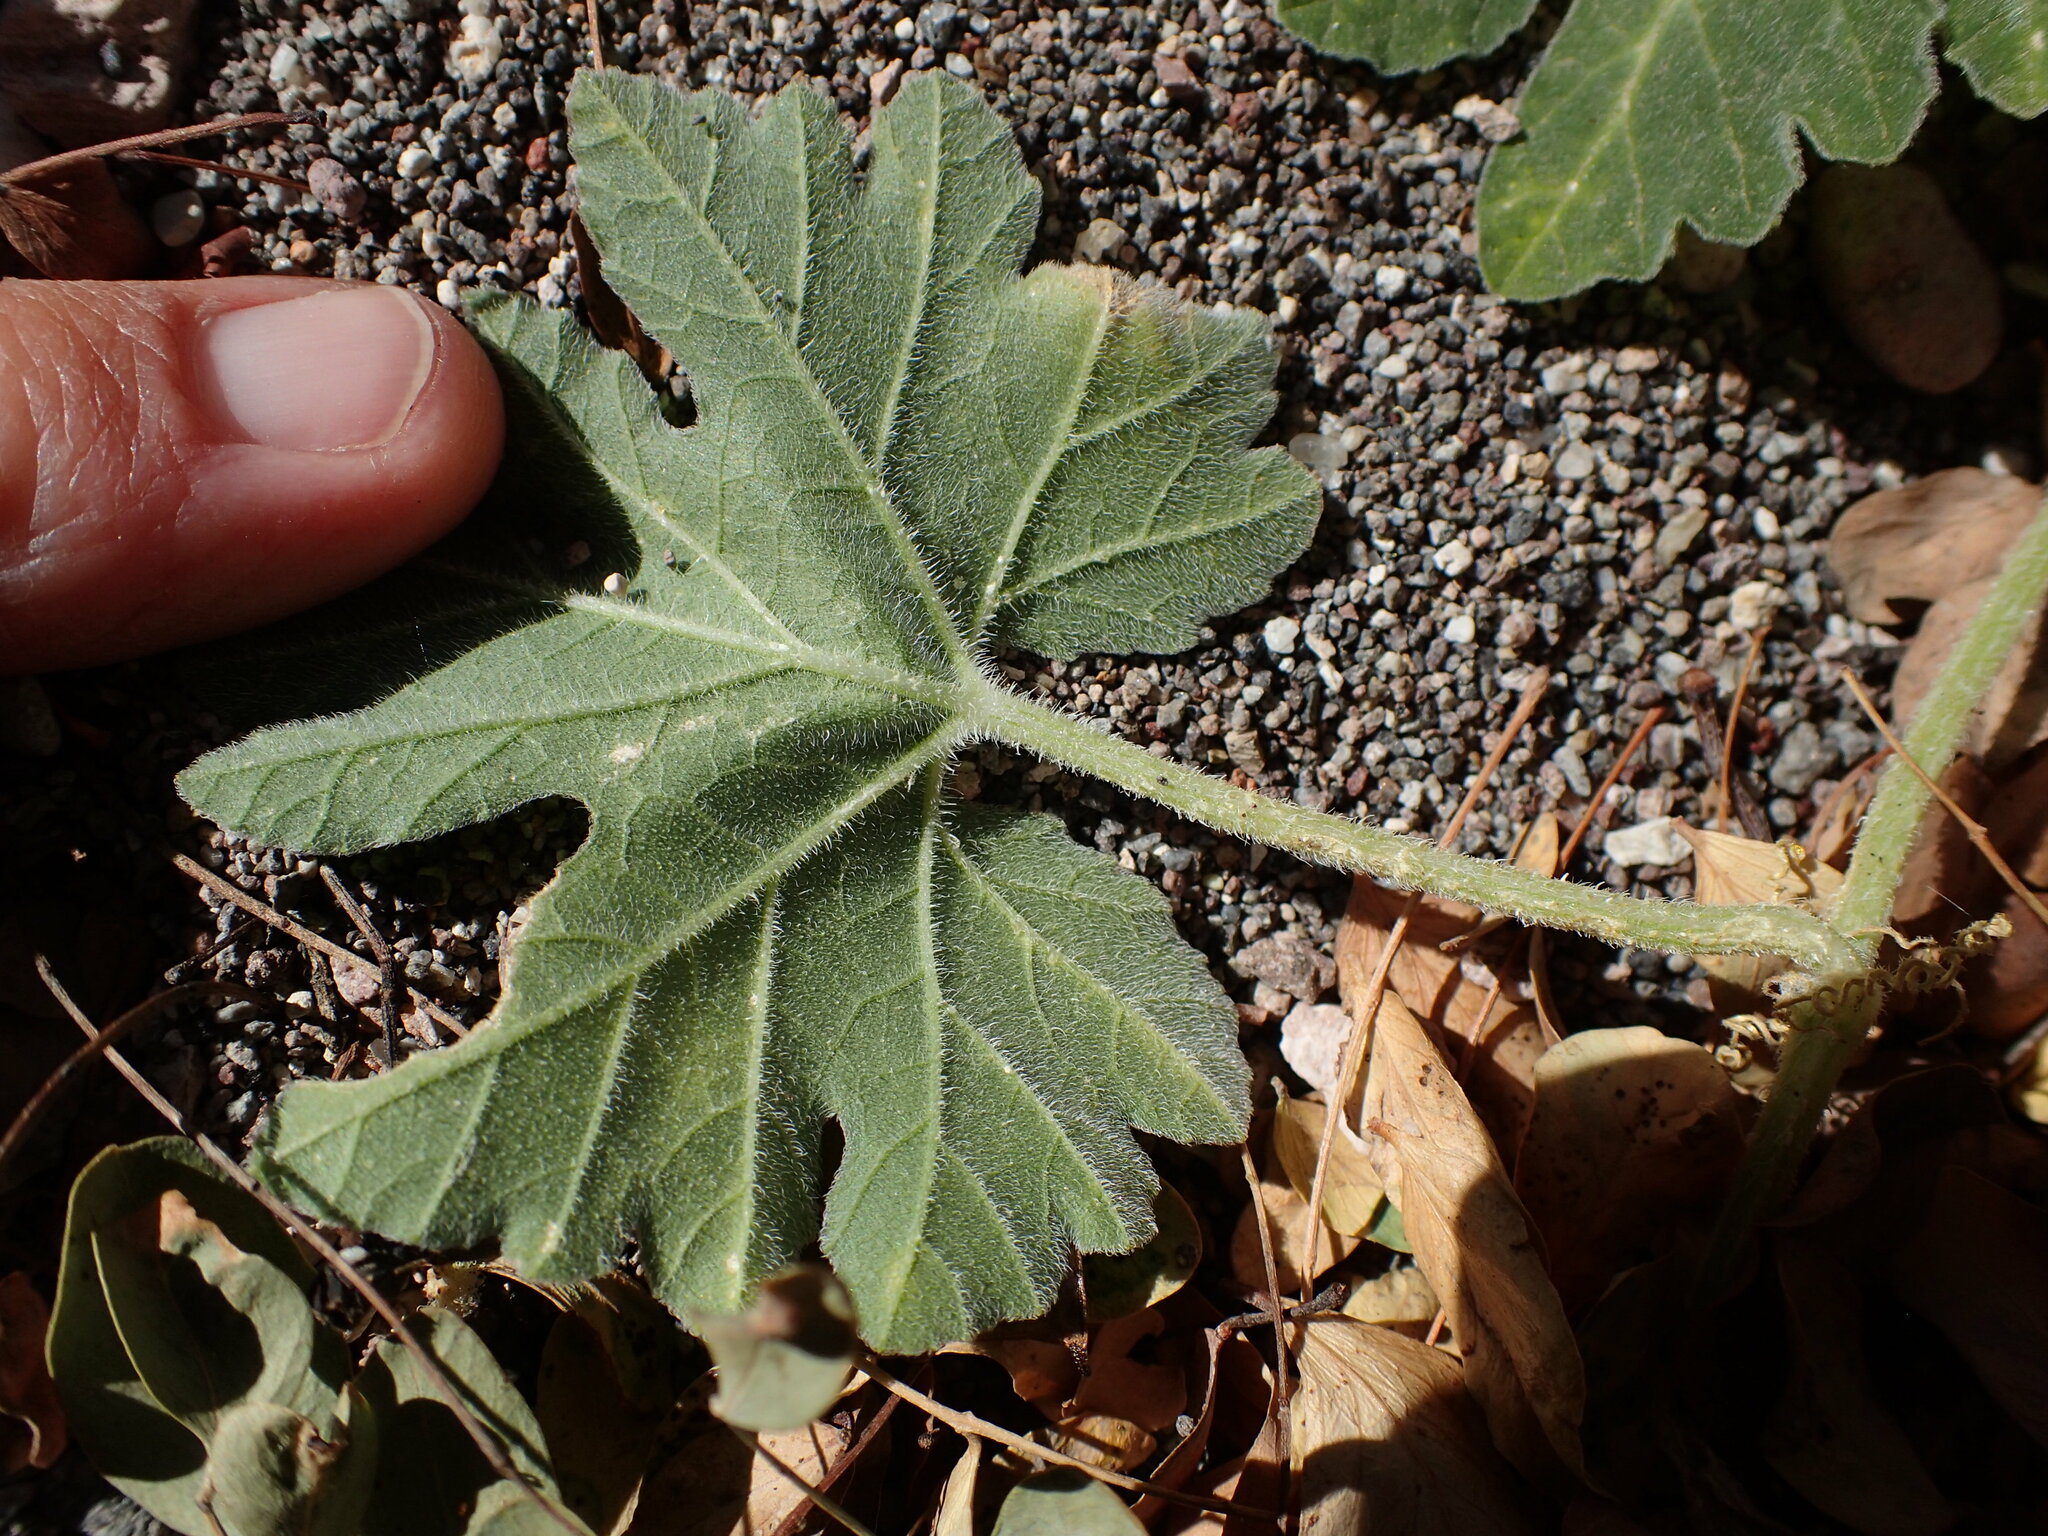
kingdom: Plantae
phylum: Tracheophyta
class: Magnoliopsida
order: Cucurbitales
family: Cucurbitaceae
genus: Cucurbita
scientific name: Cucurbita cordata
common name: Coyote gourd
